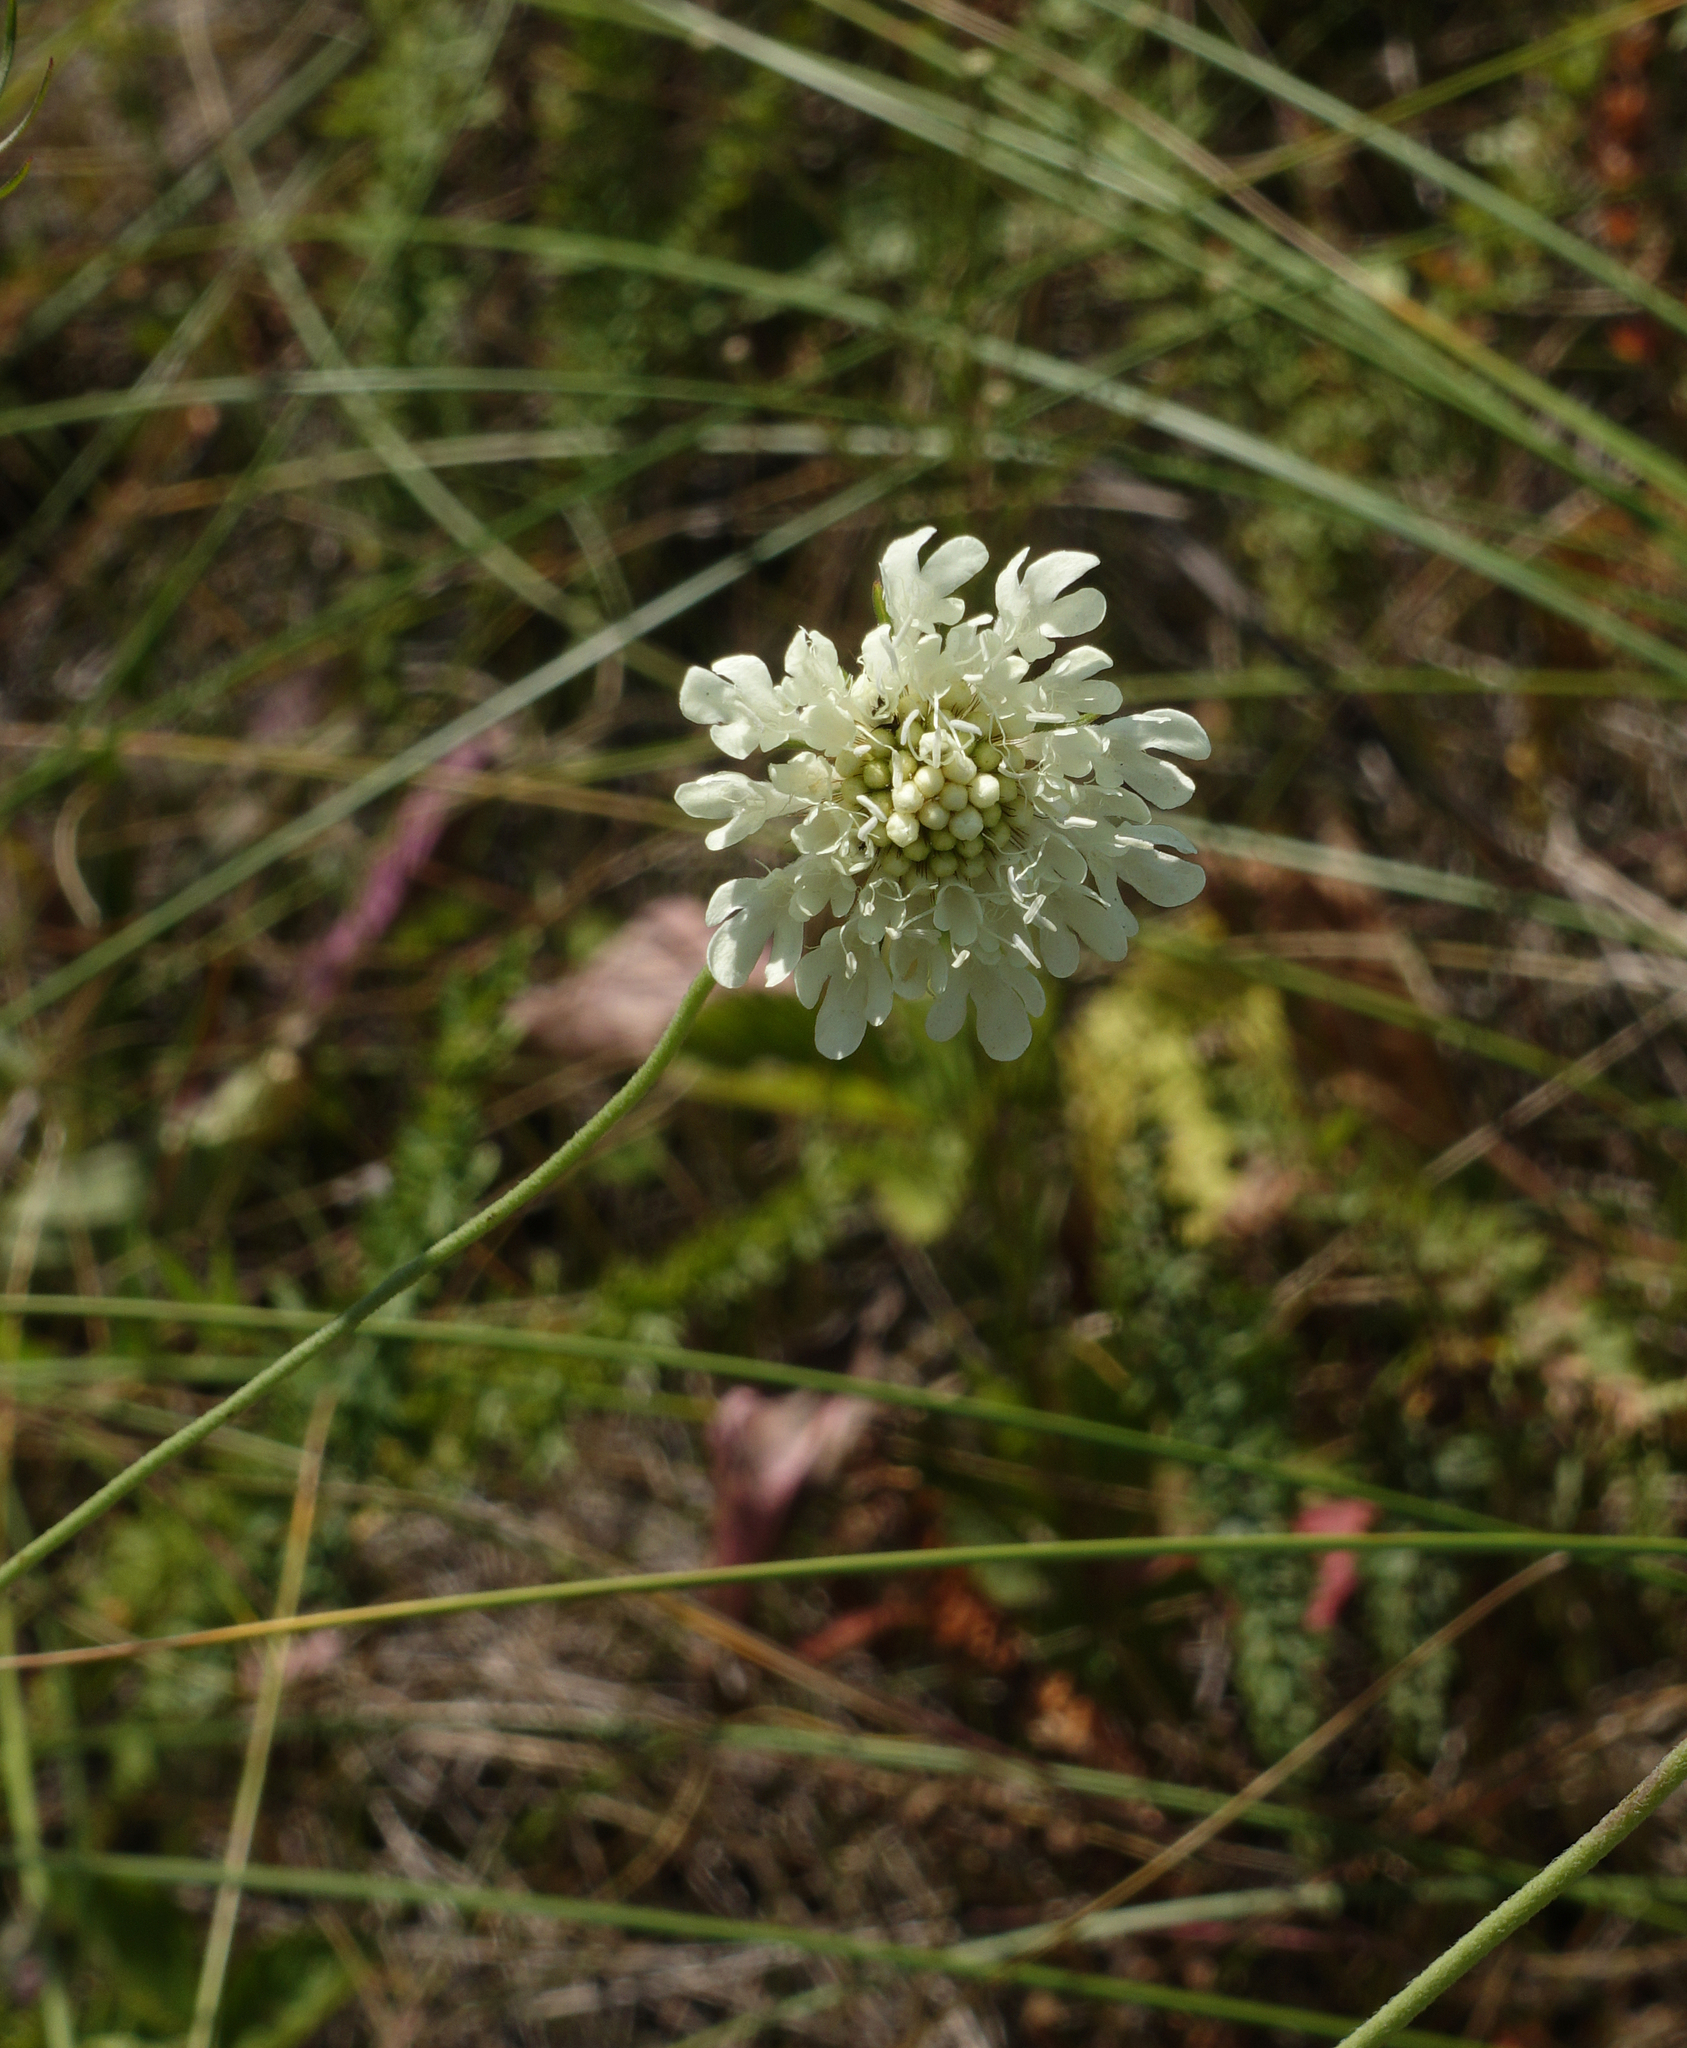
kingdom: Plantae
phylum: Tracheophyta
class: Magnoliopsida
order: Dipsacales
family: Caprifoliaceae
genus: Scabiosa
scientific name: Scabiosa ochroleuca
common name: Cream pincushions
